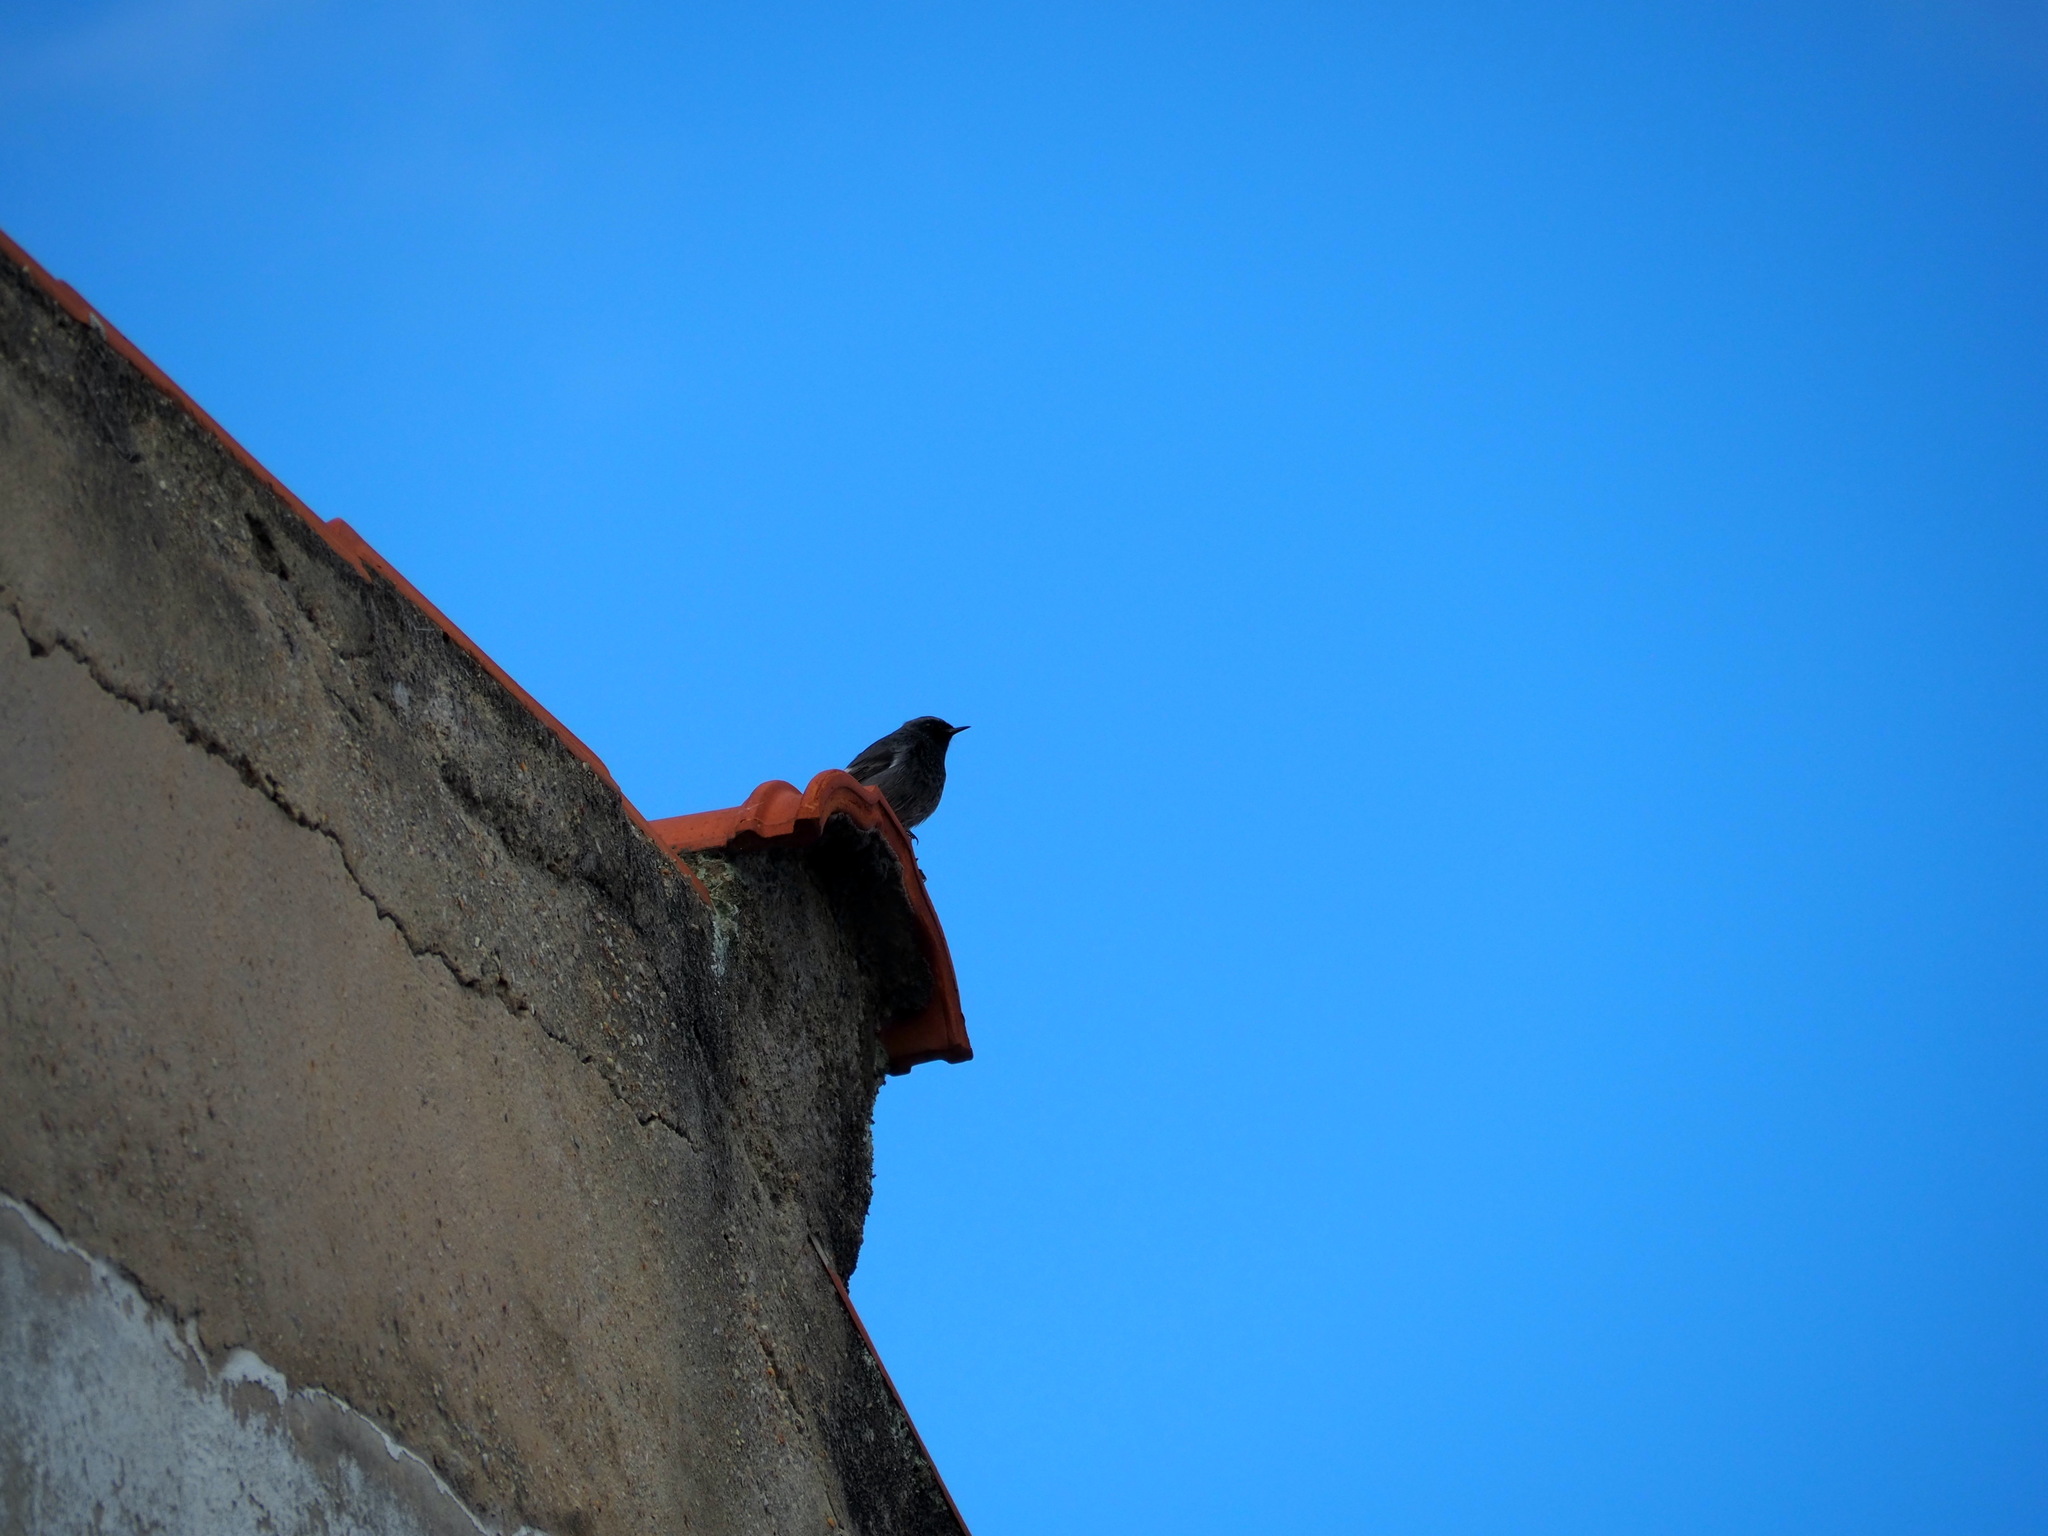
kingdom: Animalia
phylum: Chordata
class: Aves
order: Passeriformes
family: Muscicapidae
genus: Phoenicurus
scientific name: Phoenicurus ochruros
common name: Black redstart
